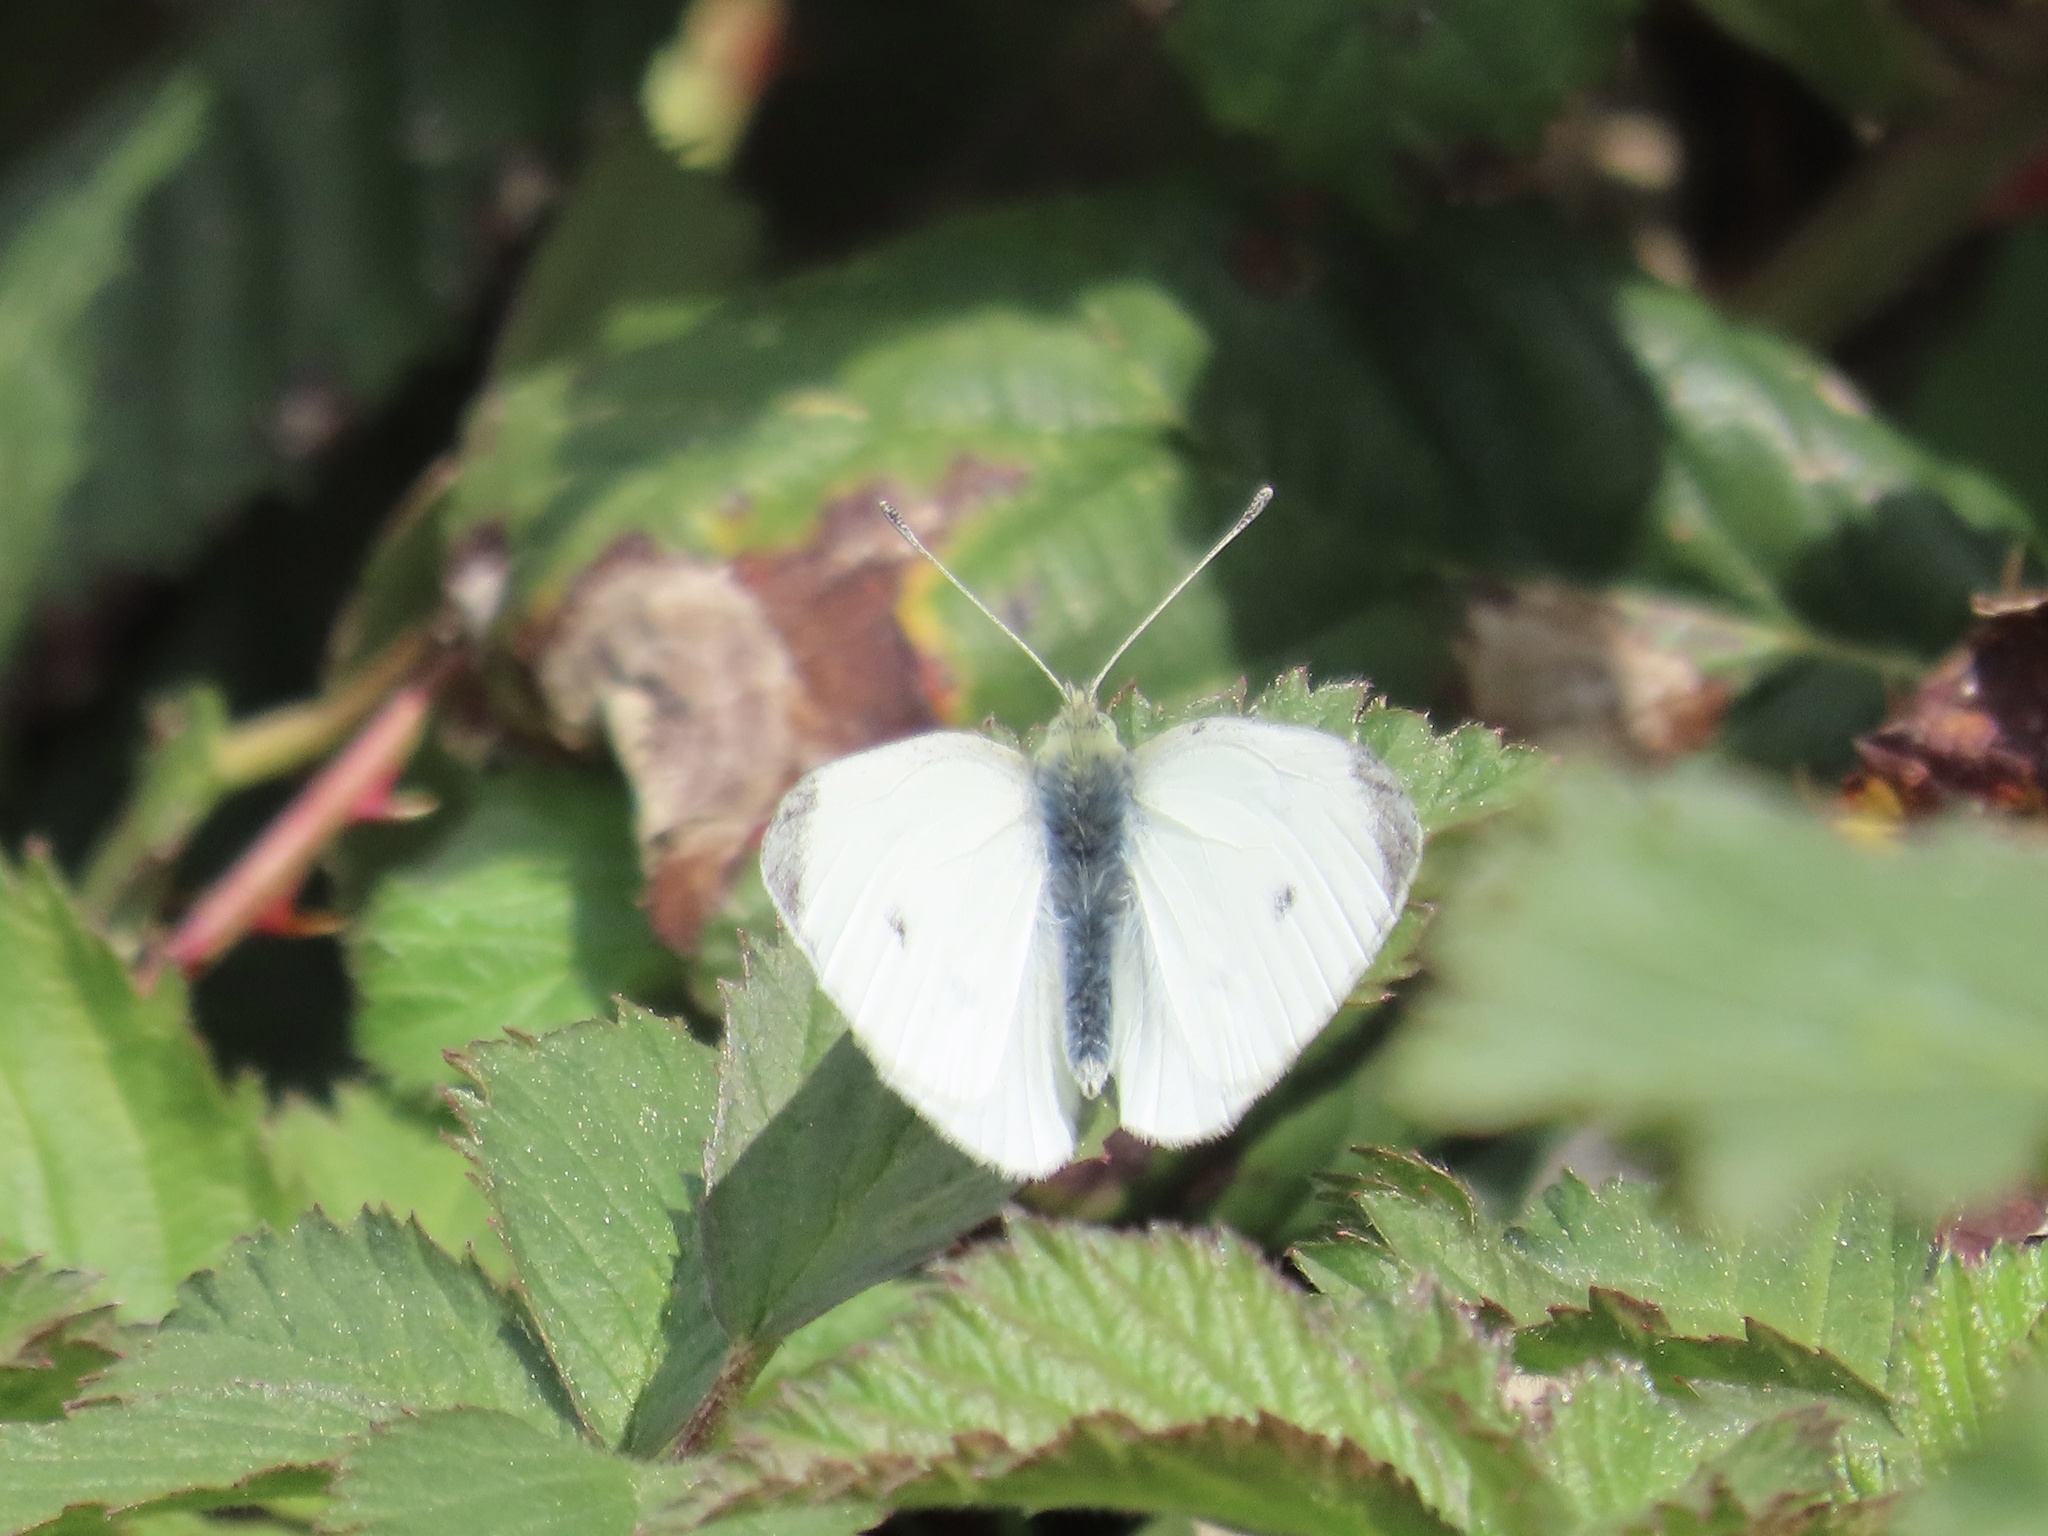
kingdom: Animalia
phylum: Arthropoda
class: Insecta
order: Lepidoptera
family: Pieridae
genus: Pieris
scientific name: Pieris rapae
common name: Small white
